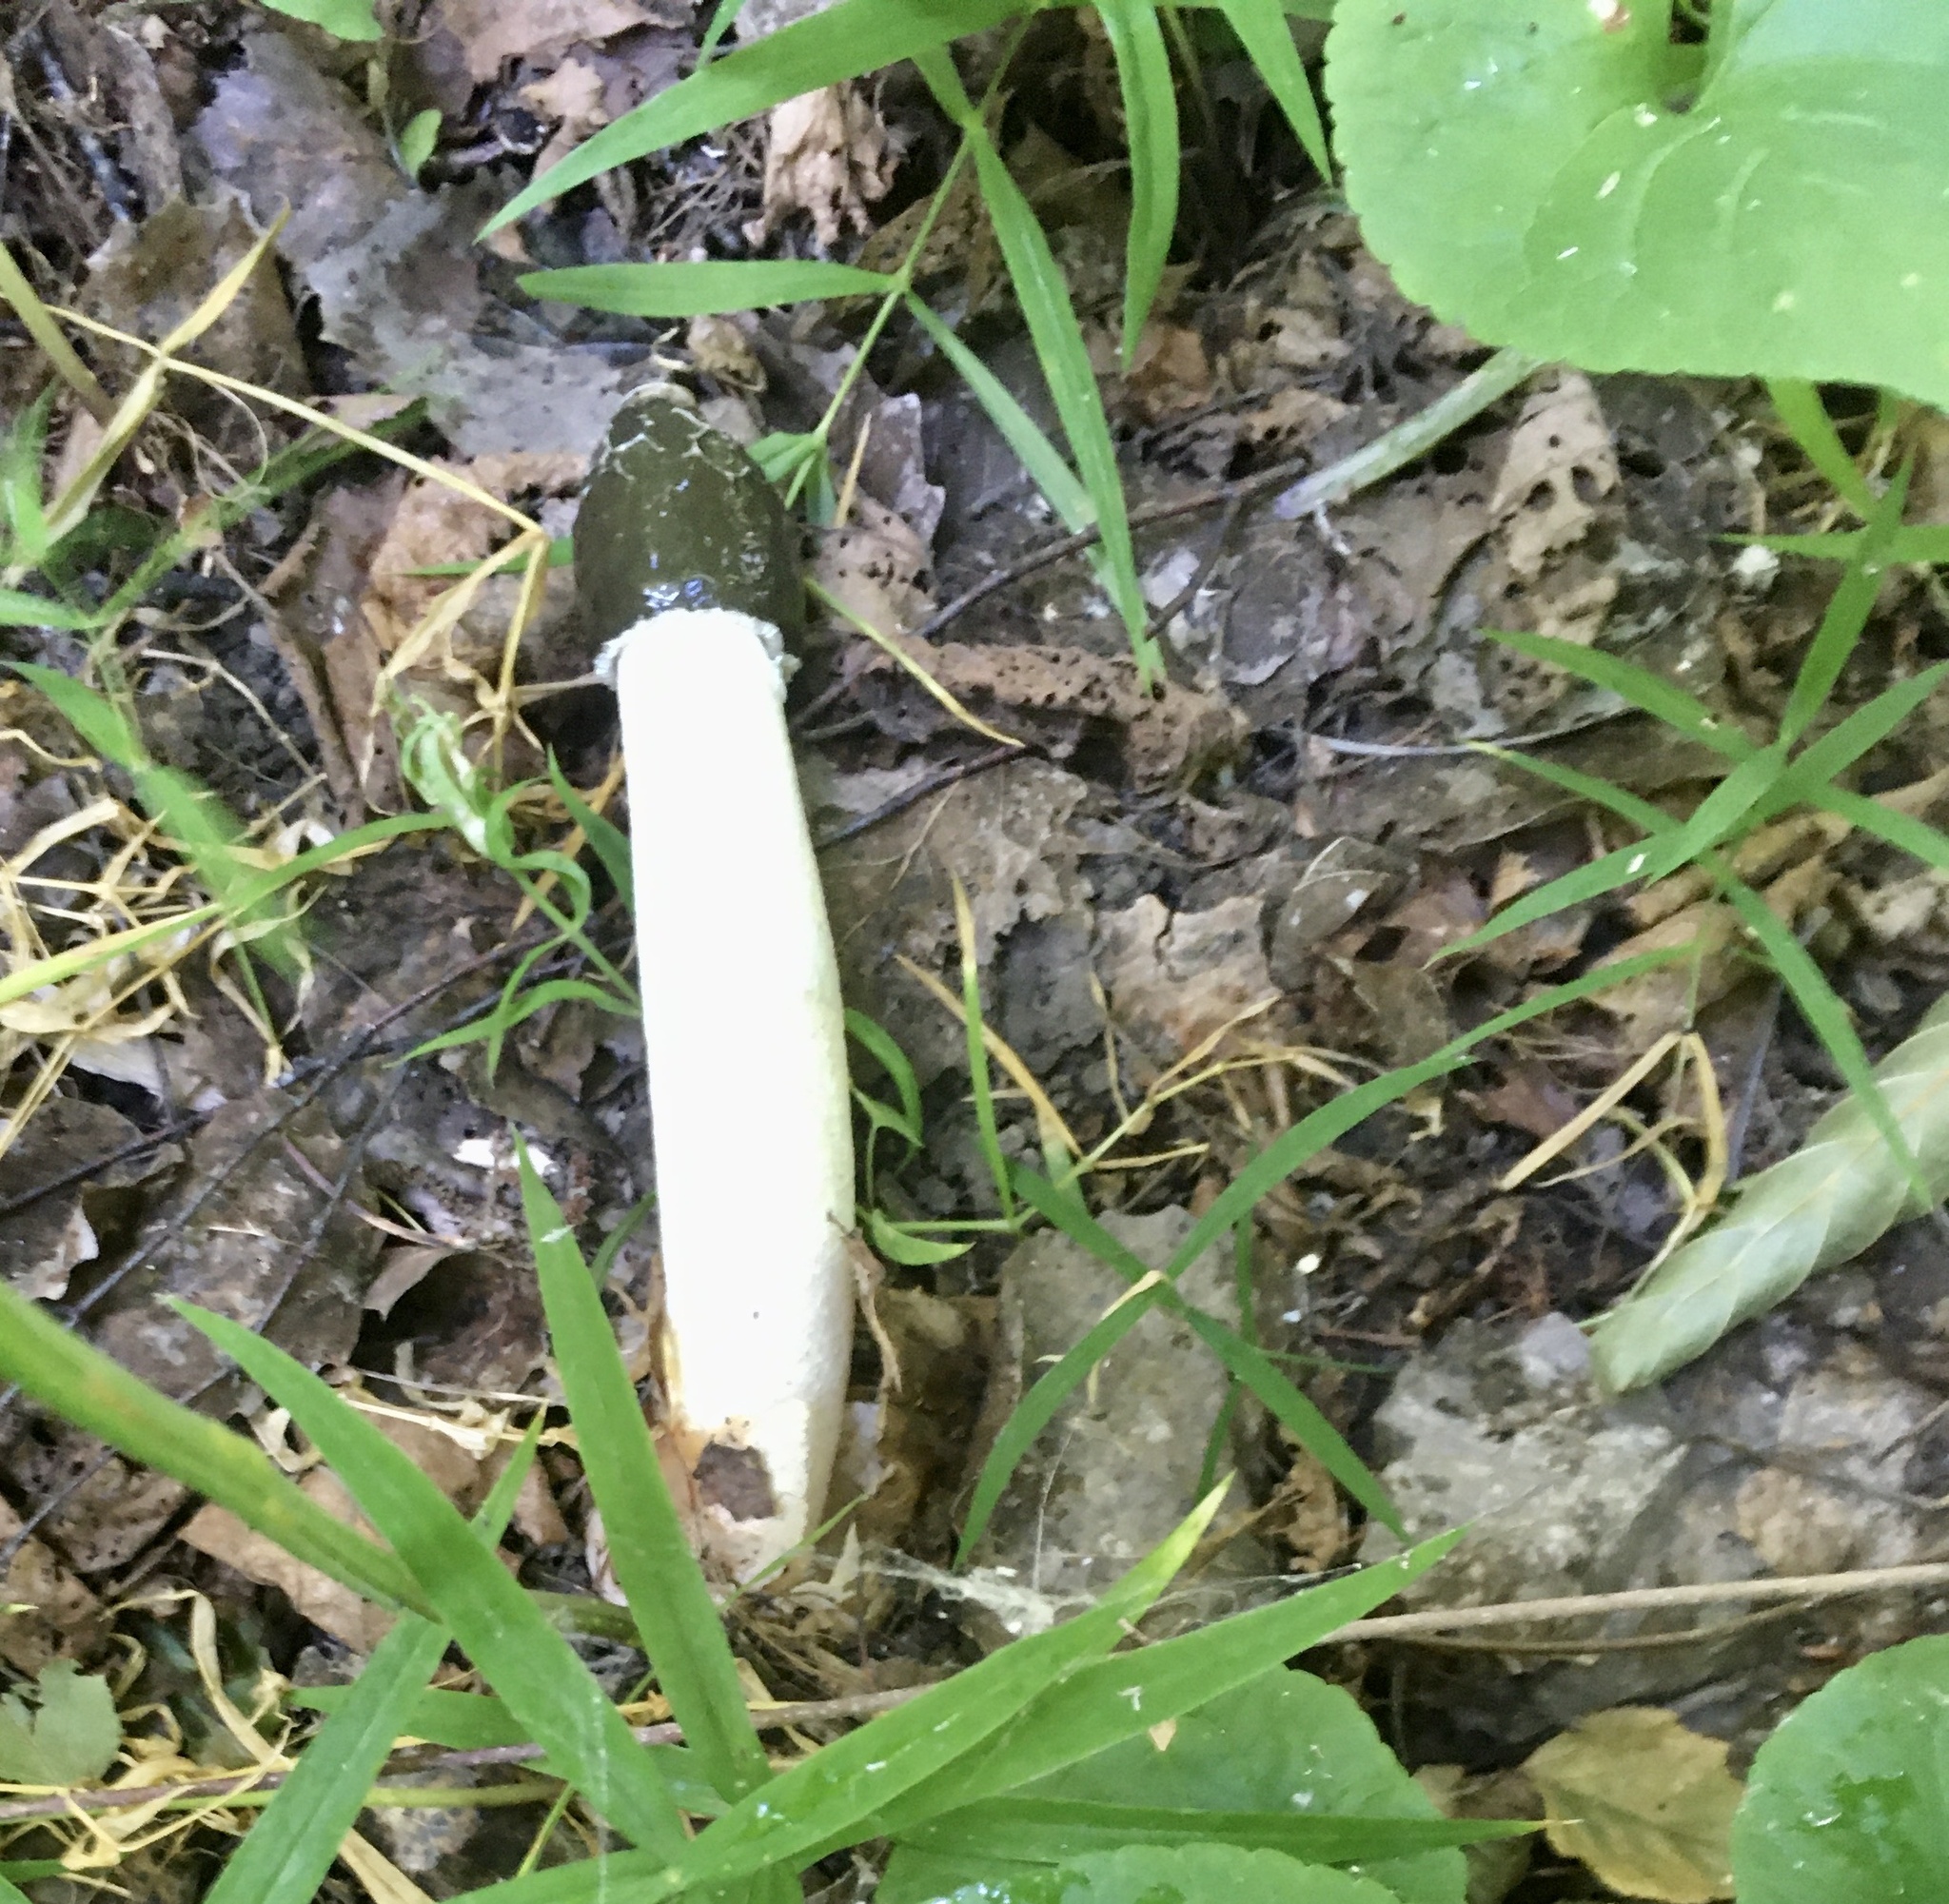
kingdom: Fungi
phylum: Basidiomycota
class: Agaricomycetes
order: Phallales
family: Phallaceae
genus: Phallus
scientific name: Phallus impudicus
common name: Common stinkhorn
